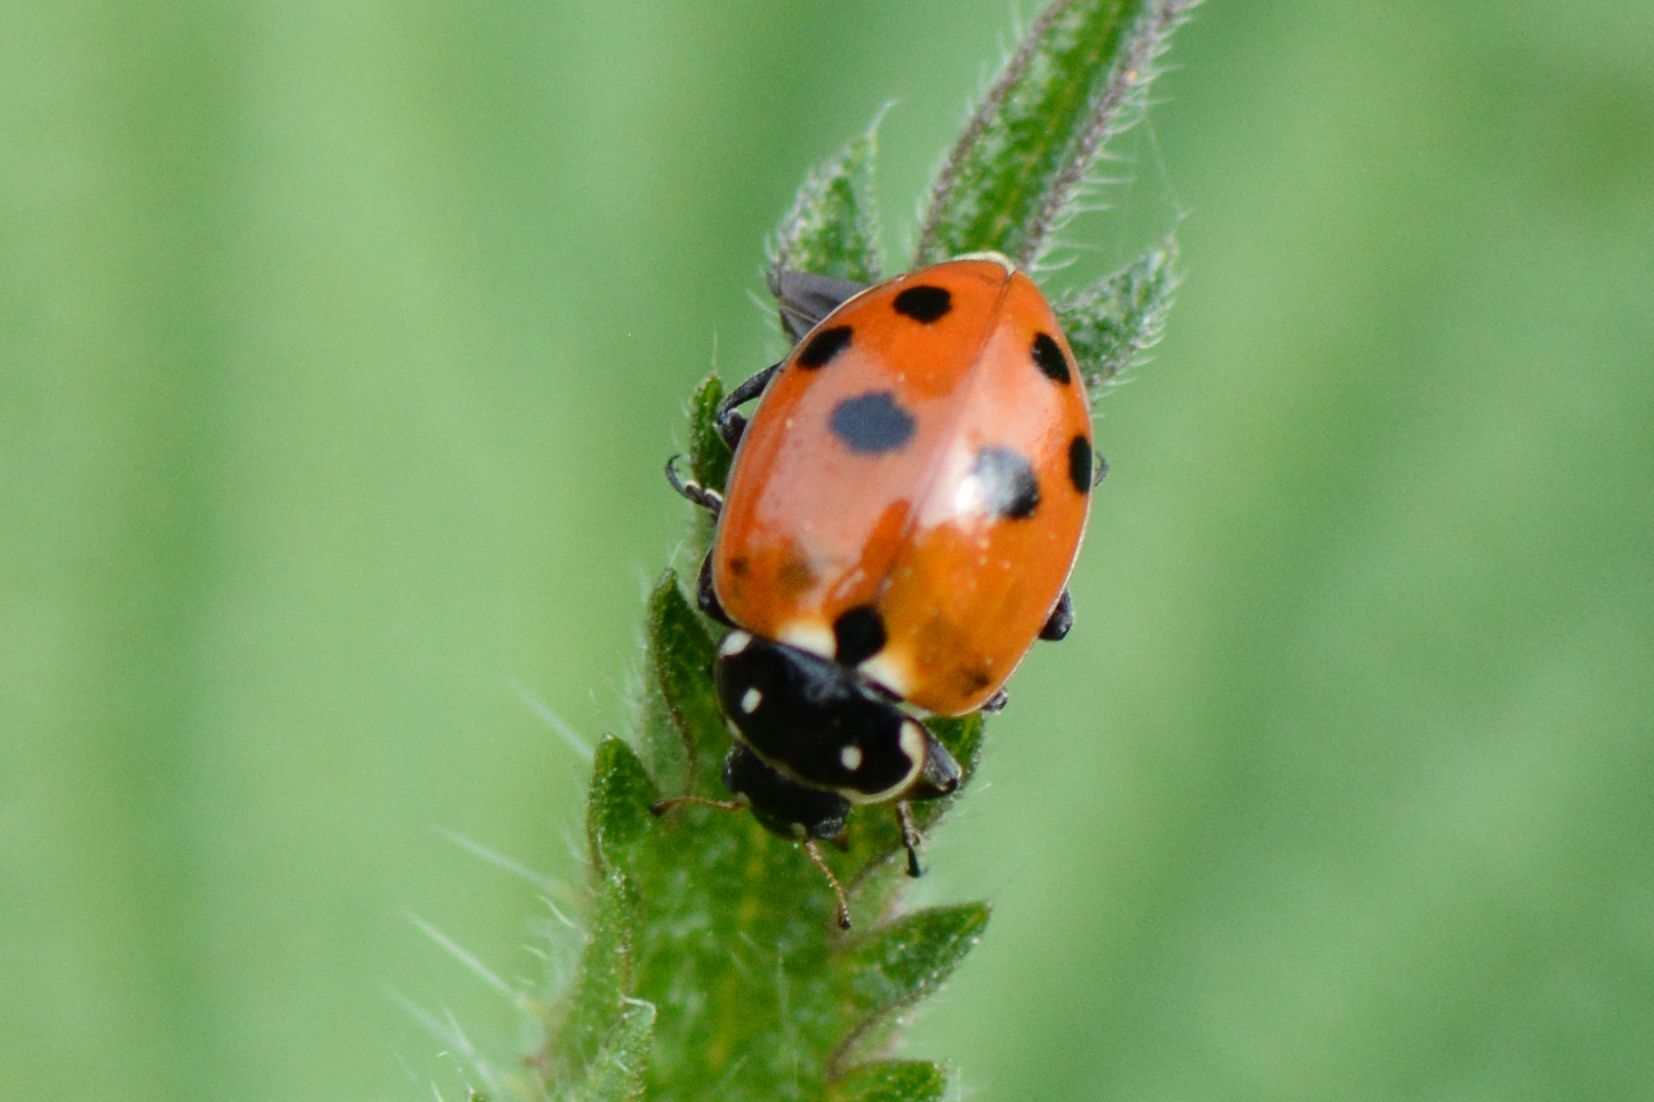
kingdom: Animalia
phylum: Arthropoda
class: Insecta
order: Coleoptera
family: Coccinellidae
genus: Hippodamia
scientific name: Hippodamia variegata
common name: Ladybird beetle
